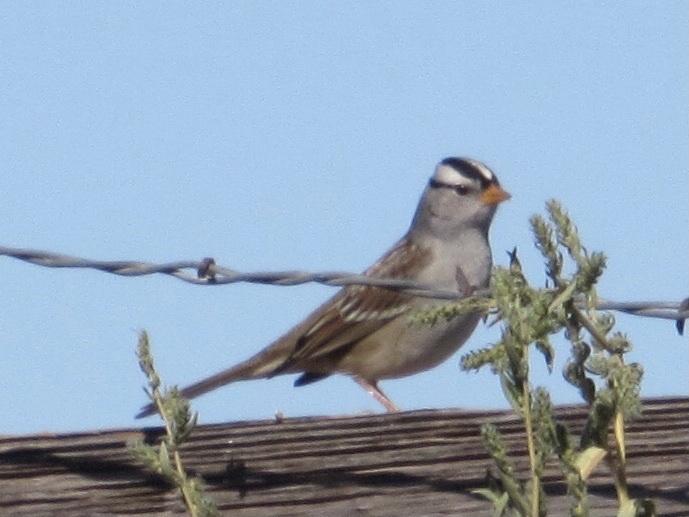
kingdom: Animalia
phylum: Chordata
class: Aves
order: Passeriformes
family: Passerellidae
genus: Zonotrichia
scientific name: Zonotrichia leucophrys
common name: White-crowned sparrow
